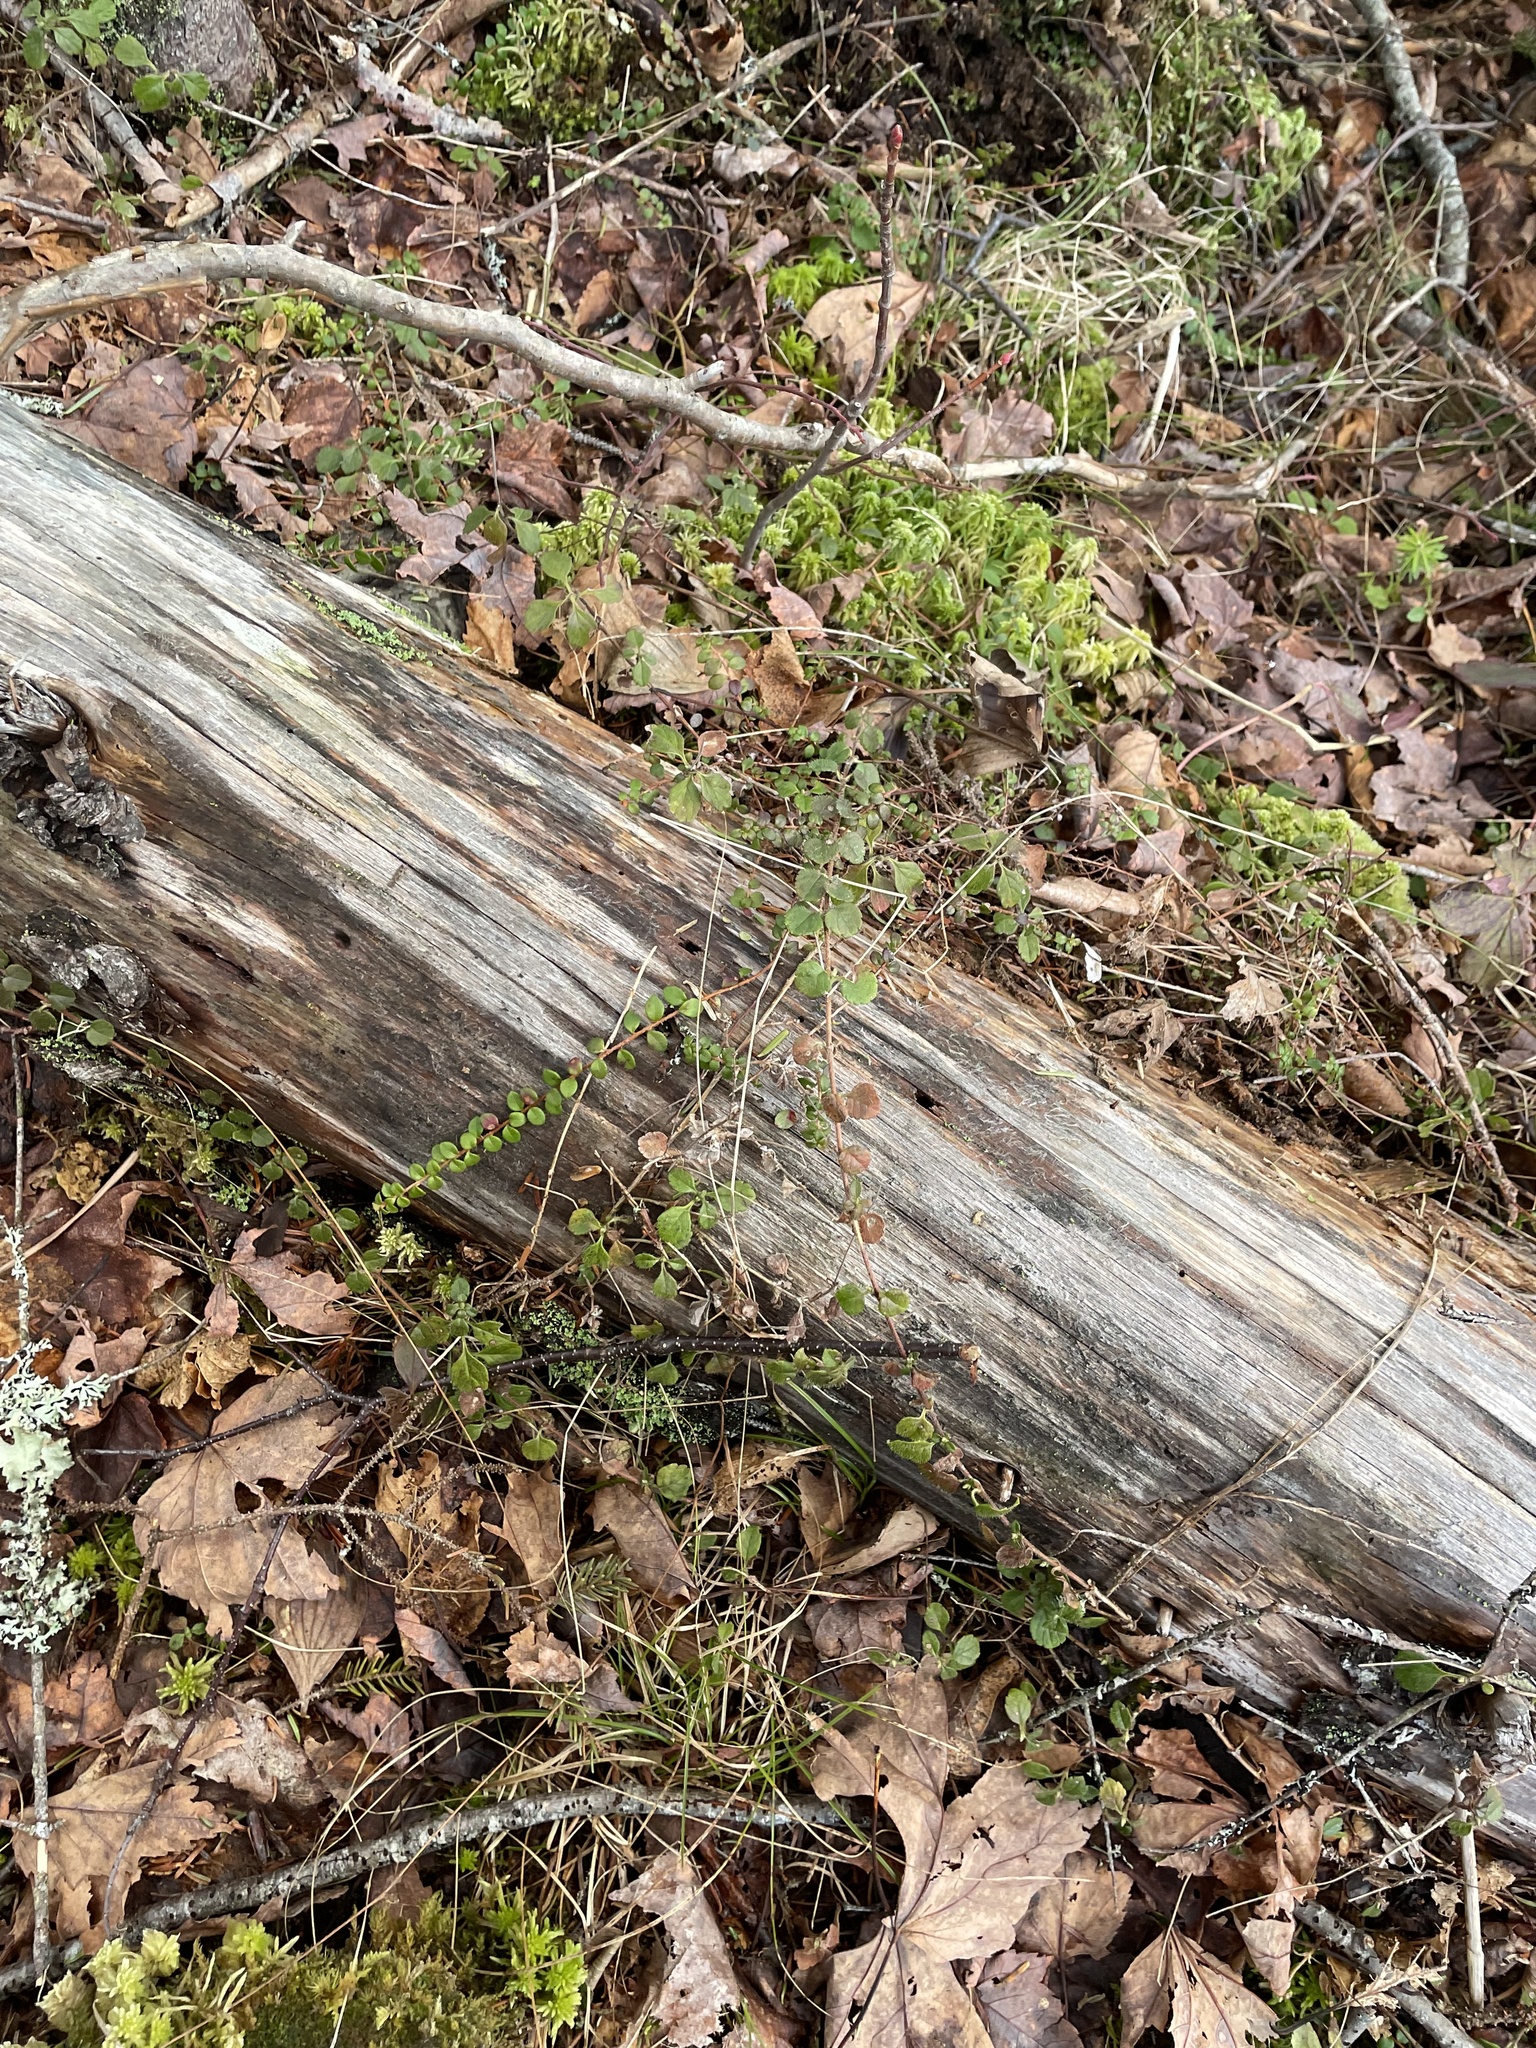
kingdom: Plantae
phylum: Tracheophyta
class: Magnoliopsida
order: Dipsacales
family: Caprifoliaceae
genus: Linnaea
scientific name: Linnaea borealis
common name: Twinflower
